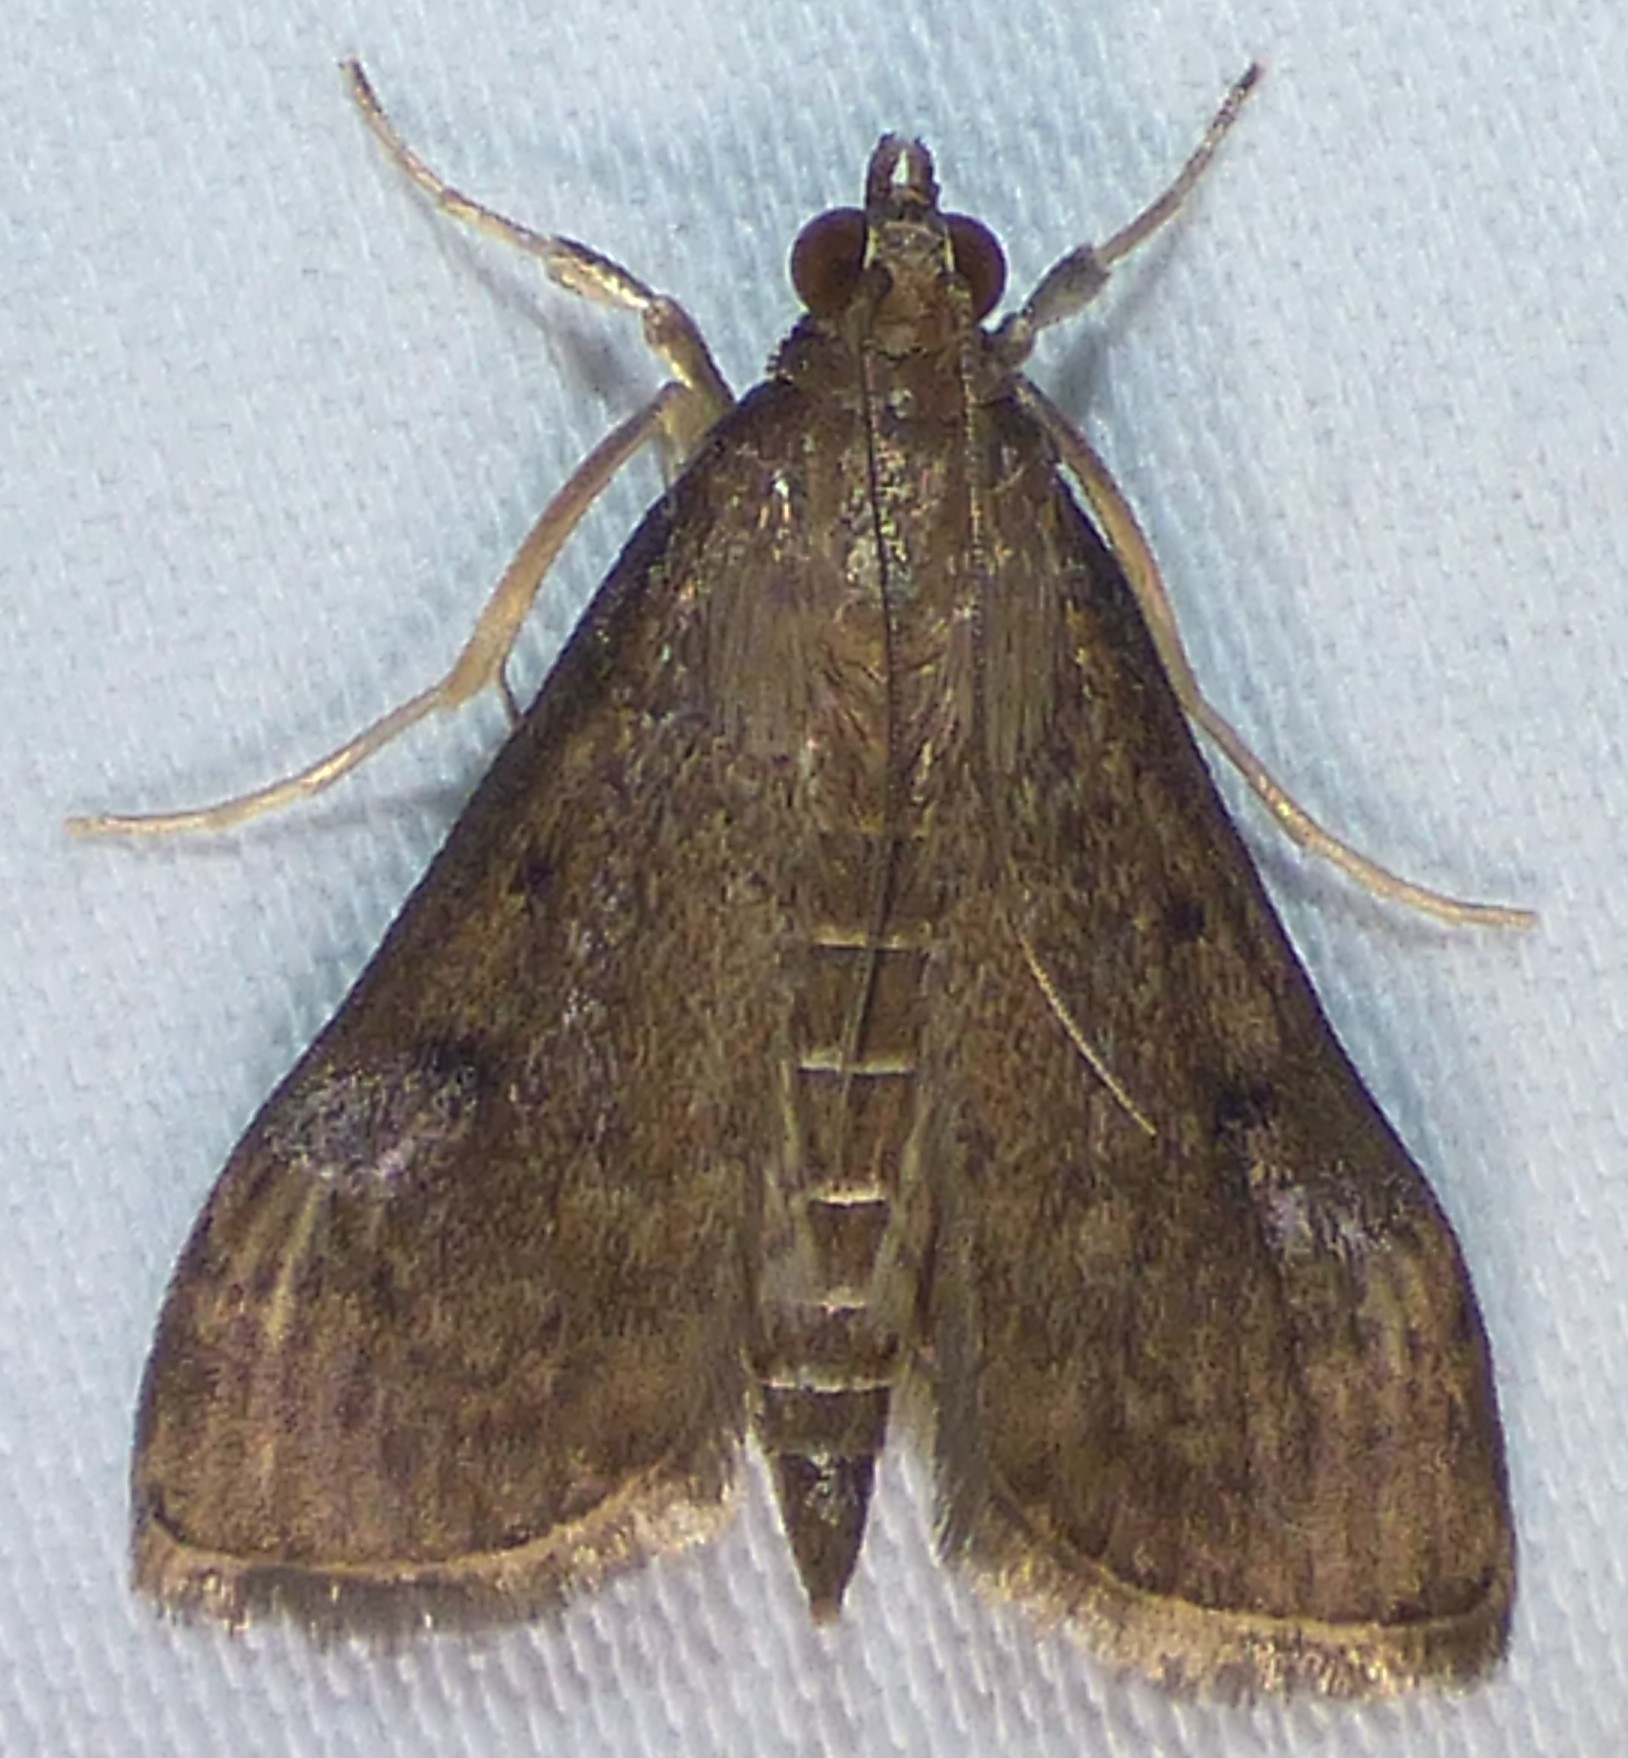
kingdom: Animalia
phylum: Arthropoda
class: Insecta
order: Lepidoptera
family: Crambidae
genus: Herpetogramma
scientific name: Herpetogramma phaeopteralis
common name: Dusky herpetogramma moth
